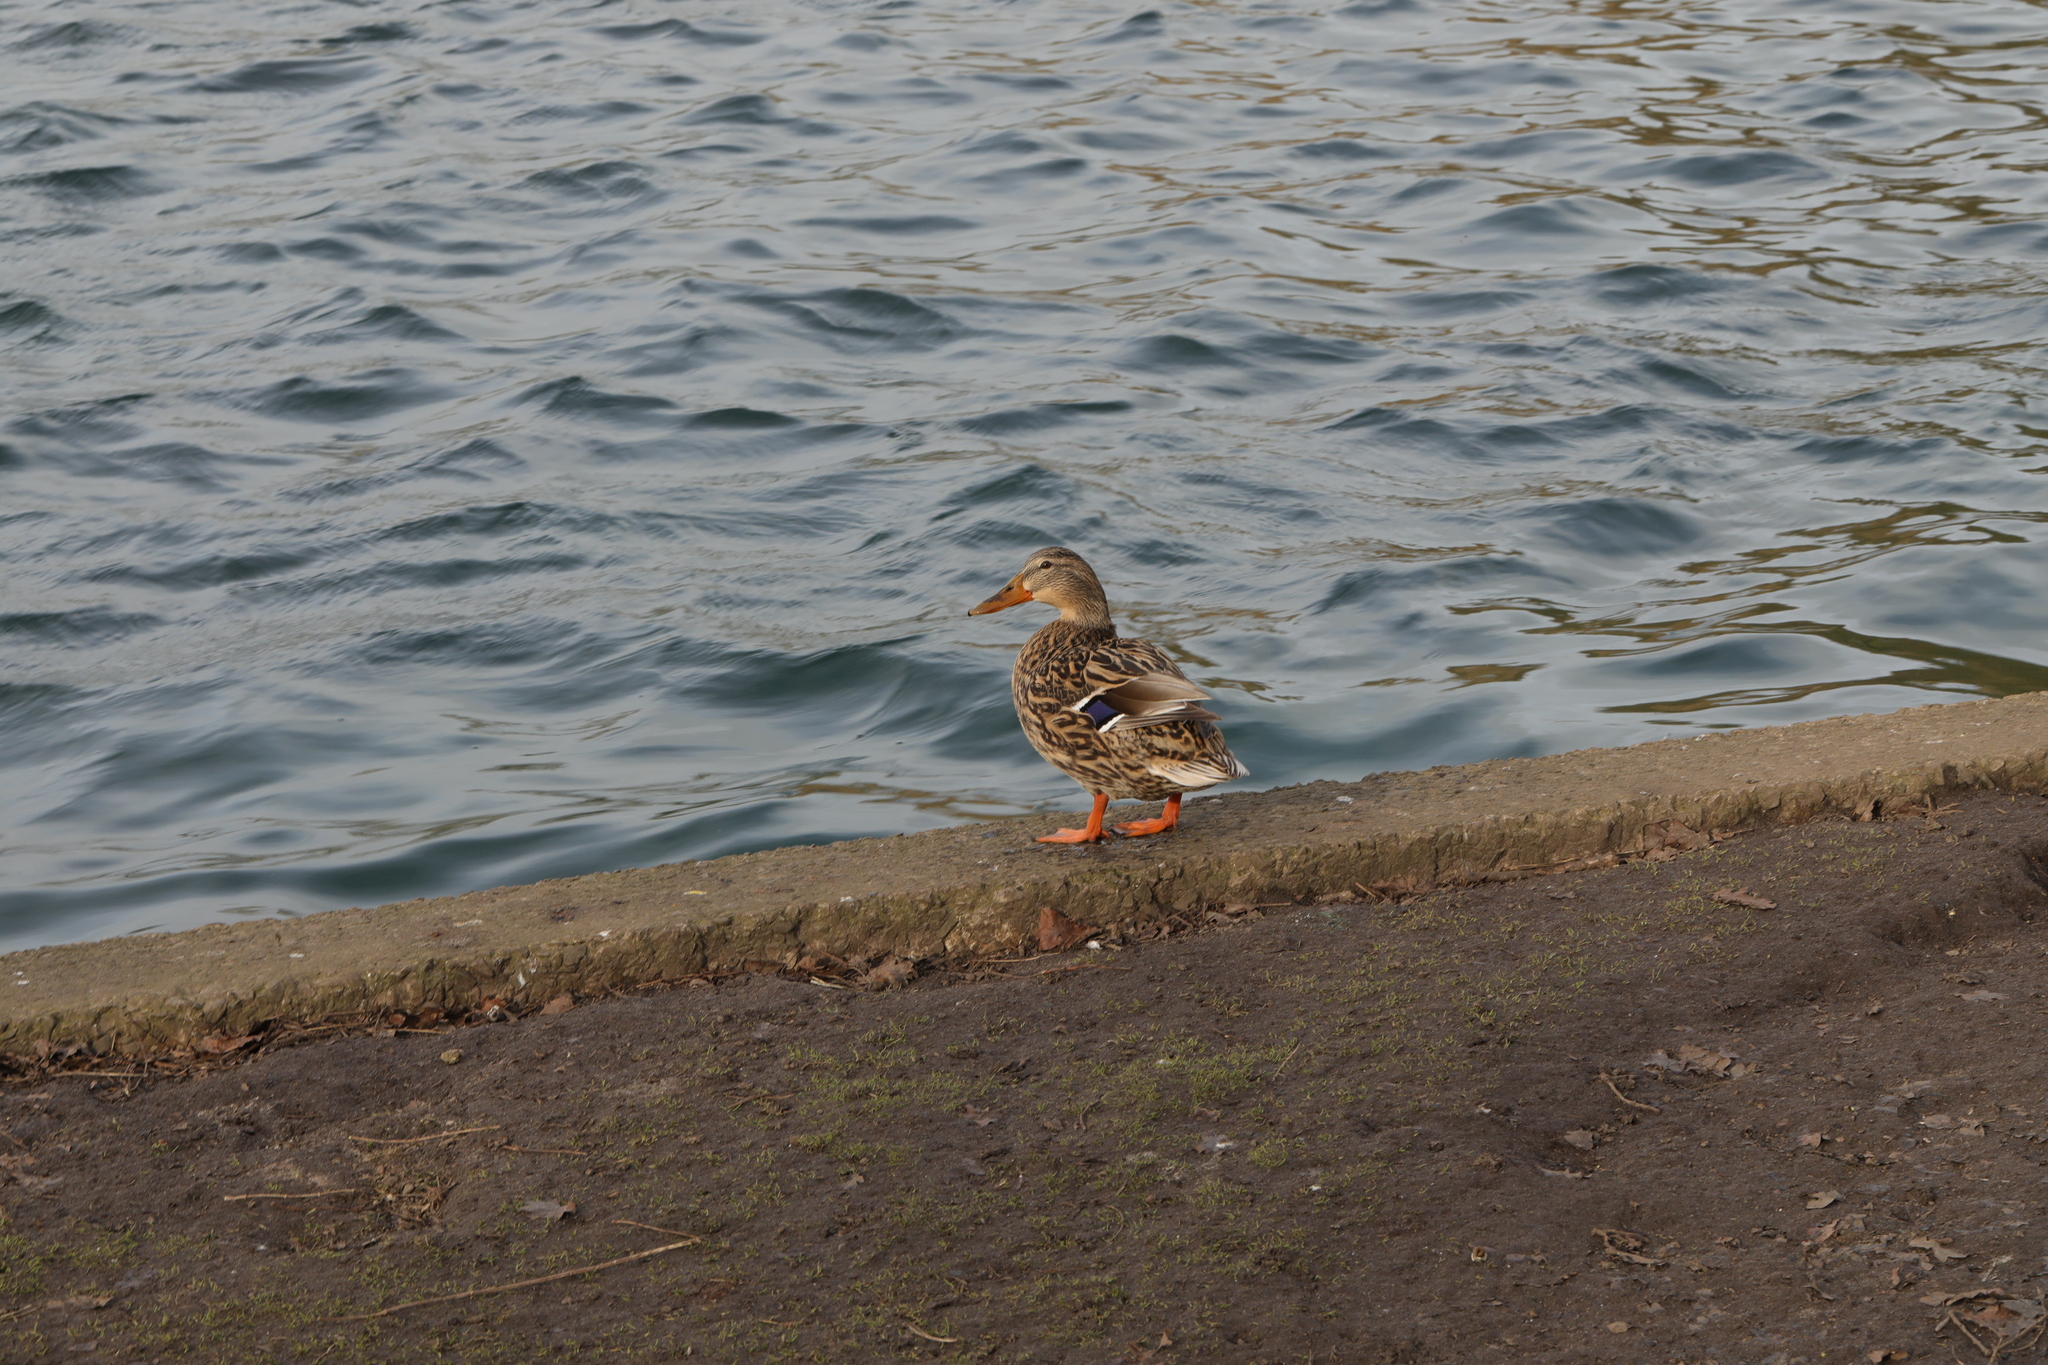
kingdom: Animalia
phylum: Chordata
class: Aves
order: Anseriformes
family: Anatidae
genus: Anas
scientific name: Anas platyrhynchos
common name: Mallard
